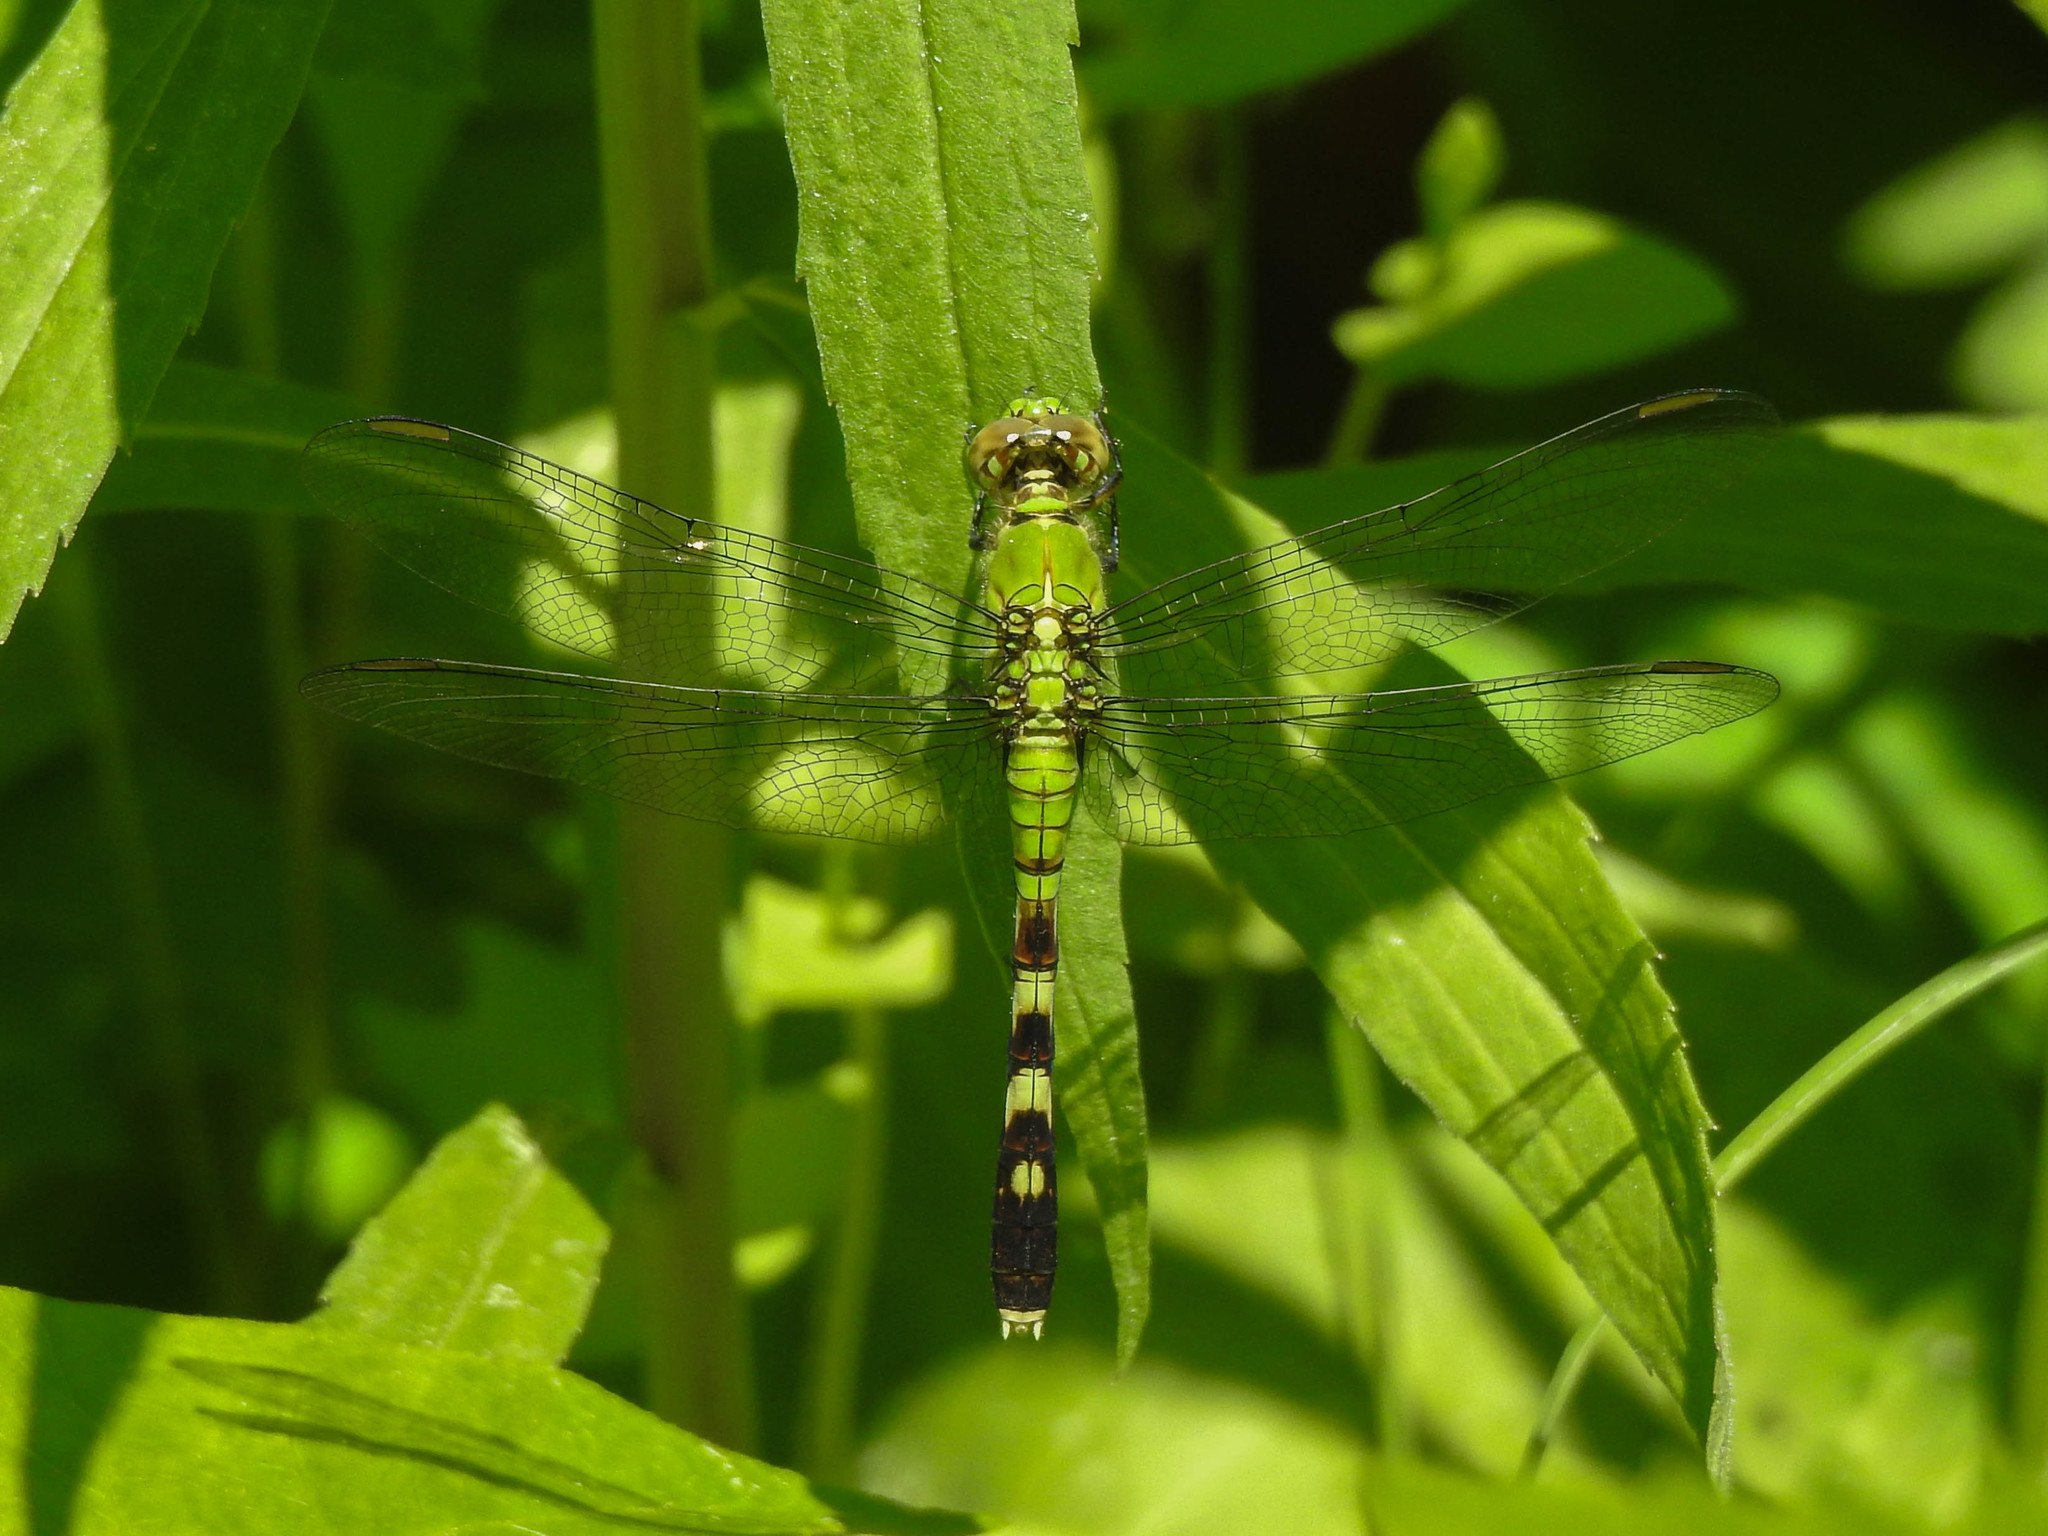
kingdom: Animalia
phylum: Arthropoda
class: Insecta
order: Odonata
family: Libellulidae
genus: Erythemis
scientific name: Erythemis simplicicollis
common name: Eastern pondhawk
